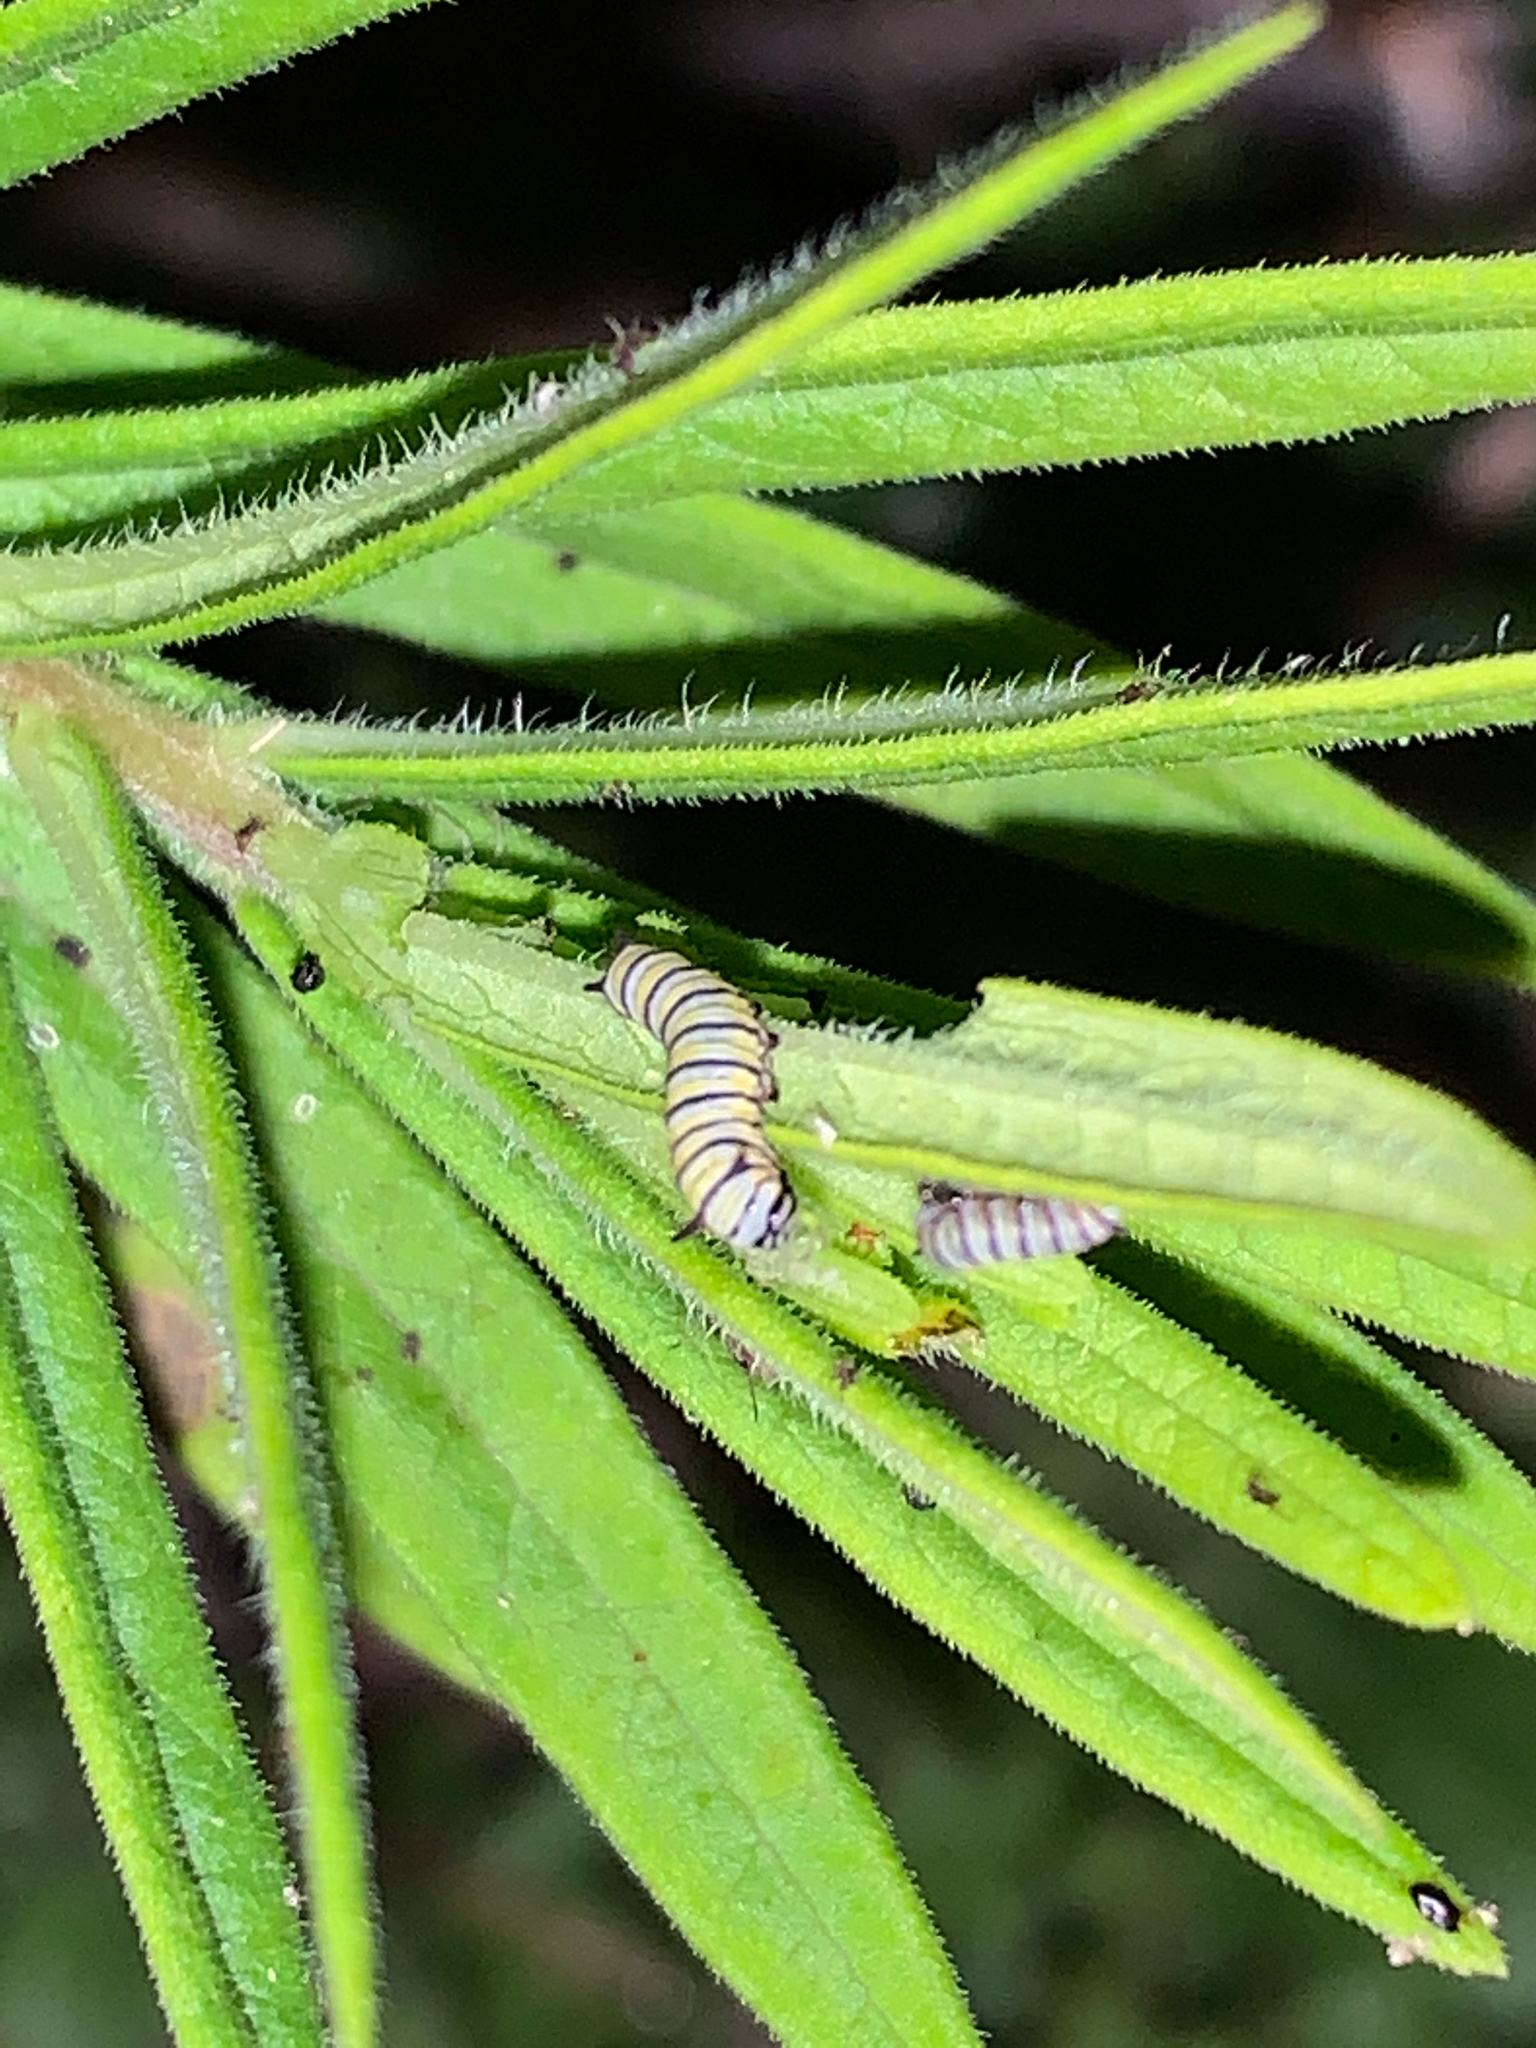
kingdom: Animalia
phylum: Arthropoda
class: Insecta
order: Lepidoptera
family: Nymphalidae
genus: Danaus
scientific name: Danaus plexippus
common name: Monarch
